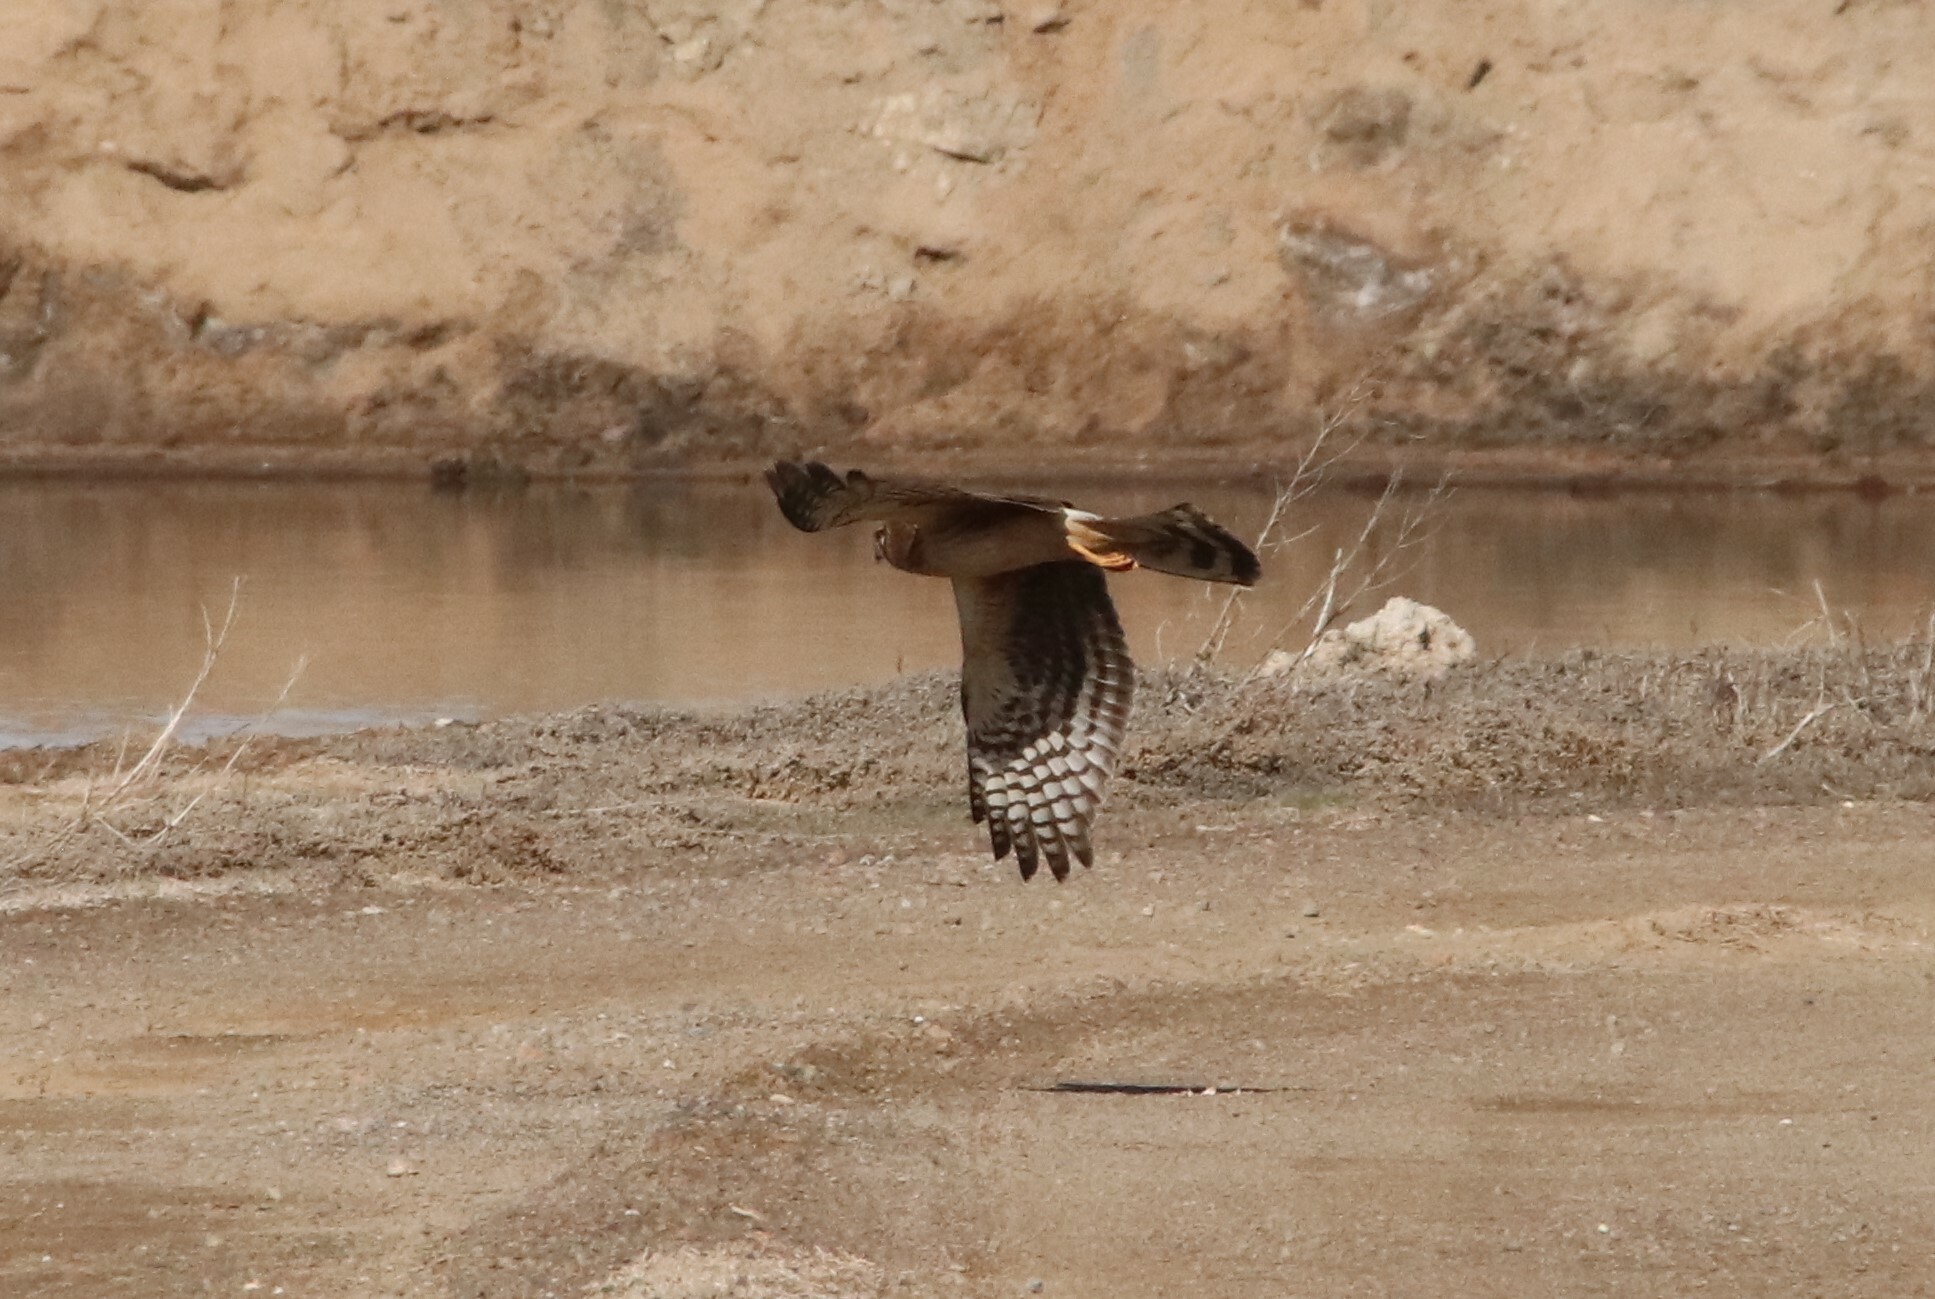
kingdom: Animalia
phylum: Chordata
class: Aves
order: Accipitriformes
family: Accipitridae
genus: Circus
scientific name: Circus cyaneus
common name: Hen harrier
